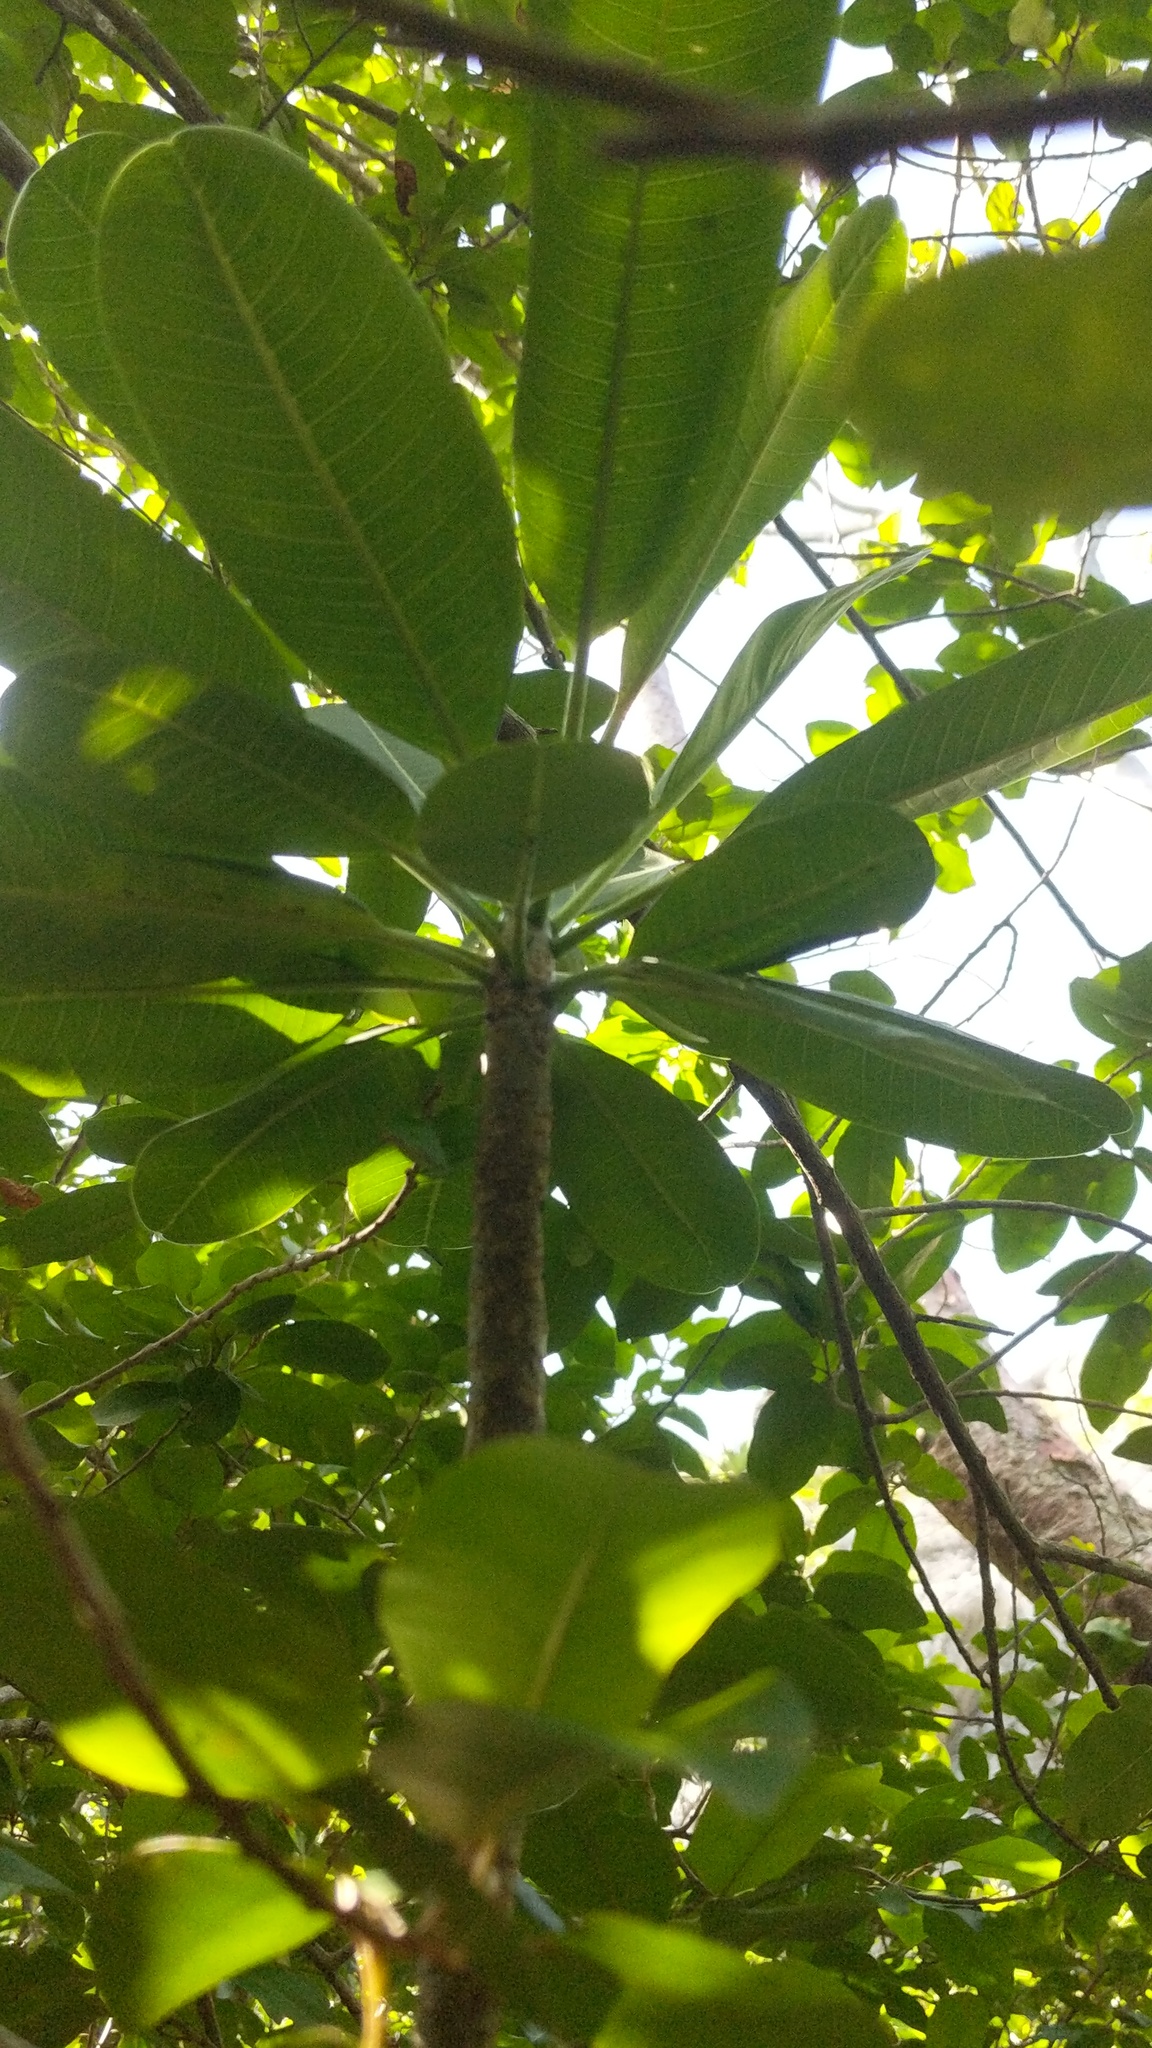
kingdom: Plantae
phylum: Tracheophyta
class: Magnoliopsida
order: Gentianales
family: Apocynaceae
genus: Plumeria
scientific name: Plumeria obtusa
